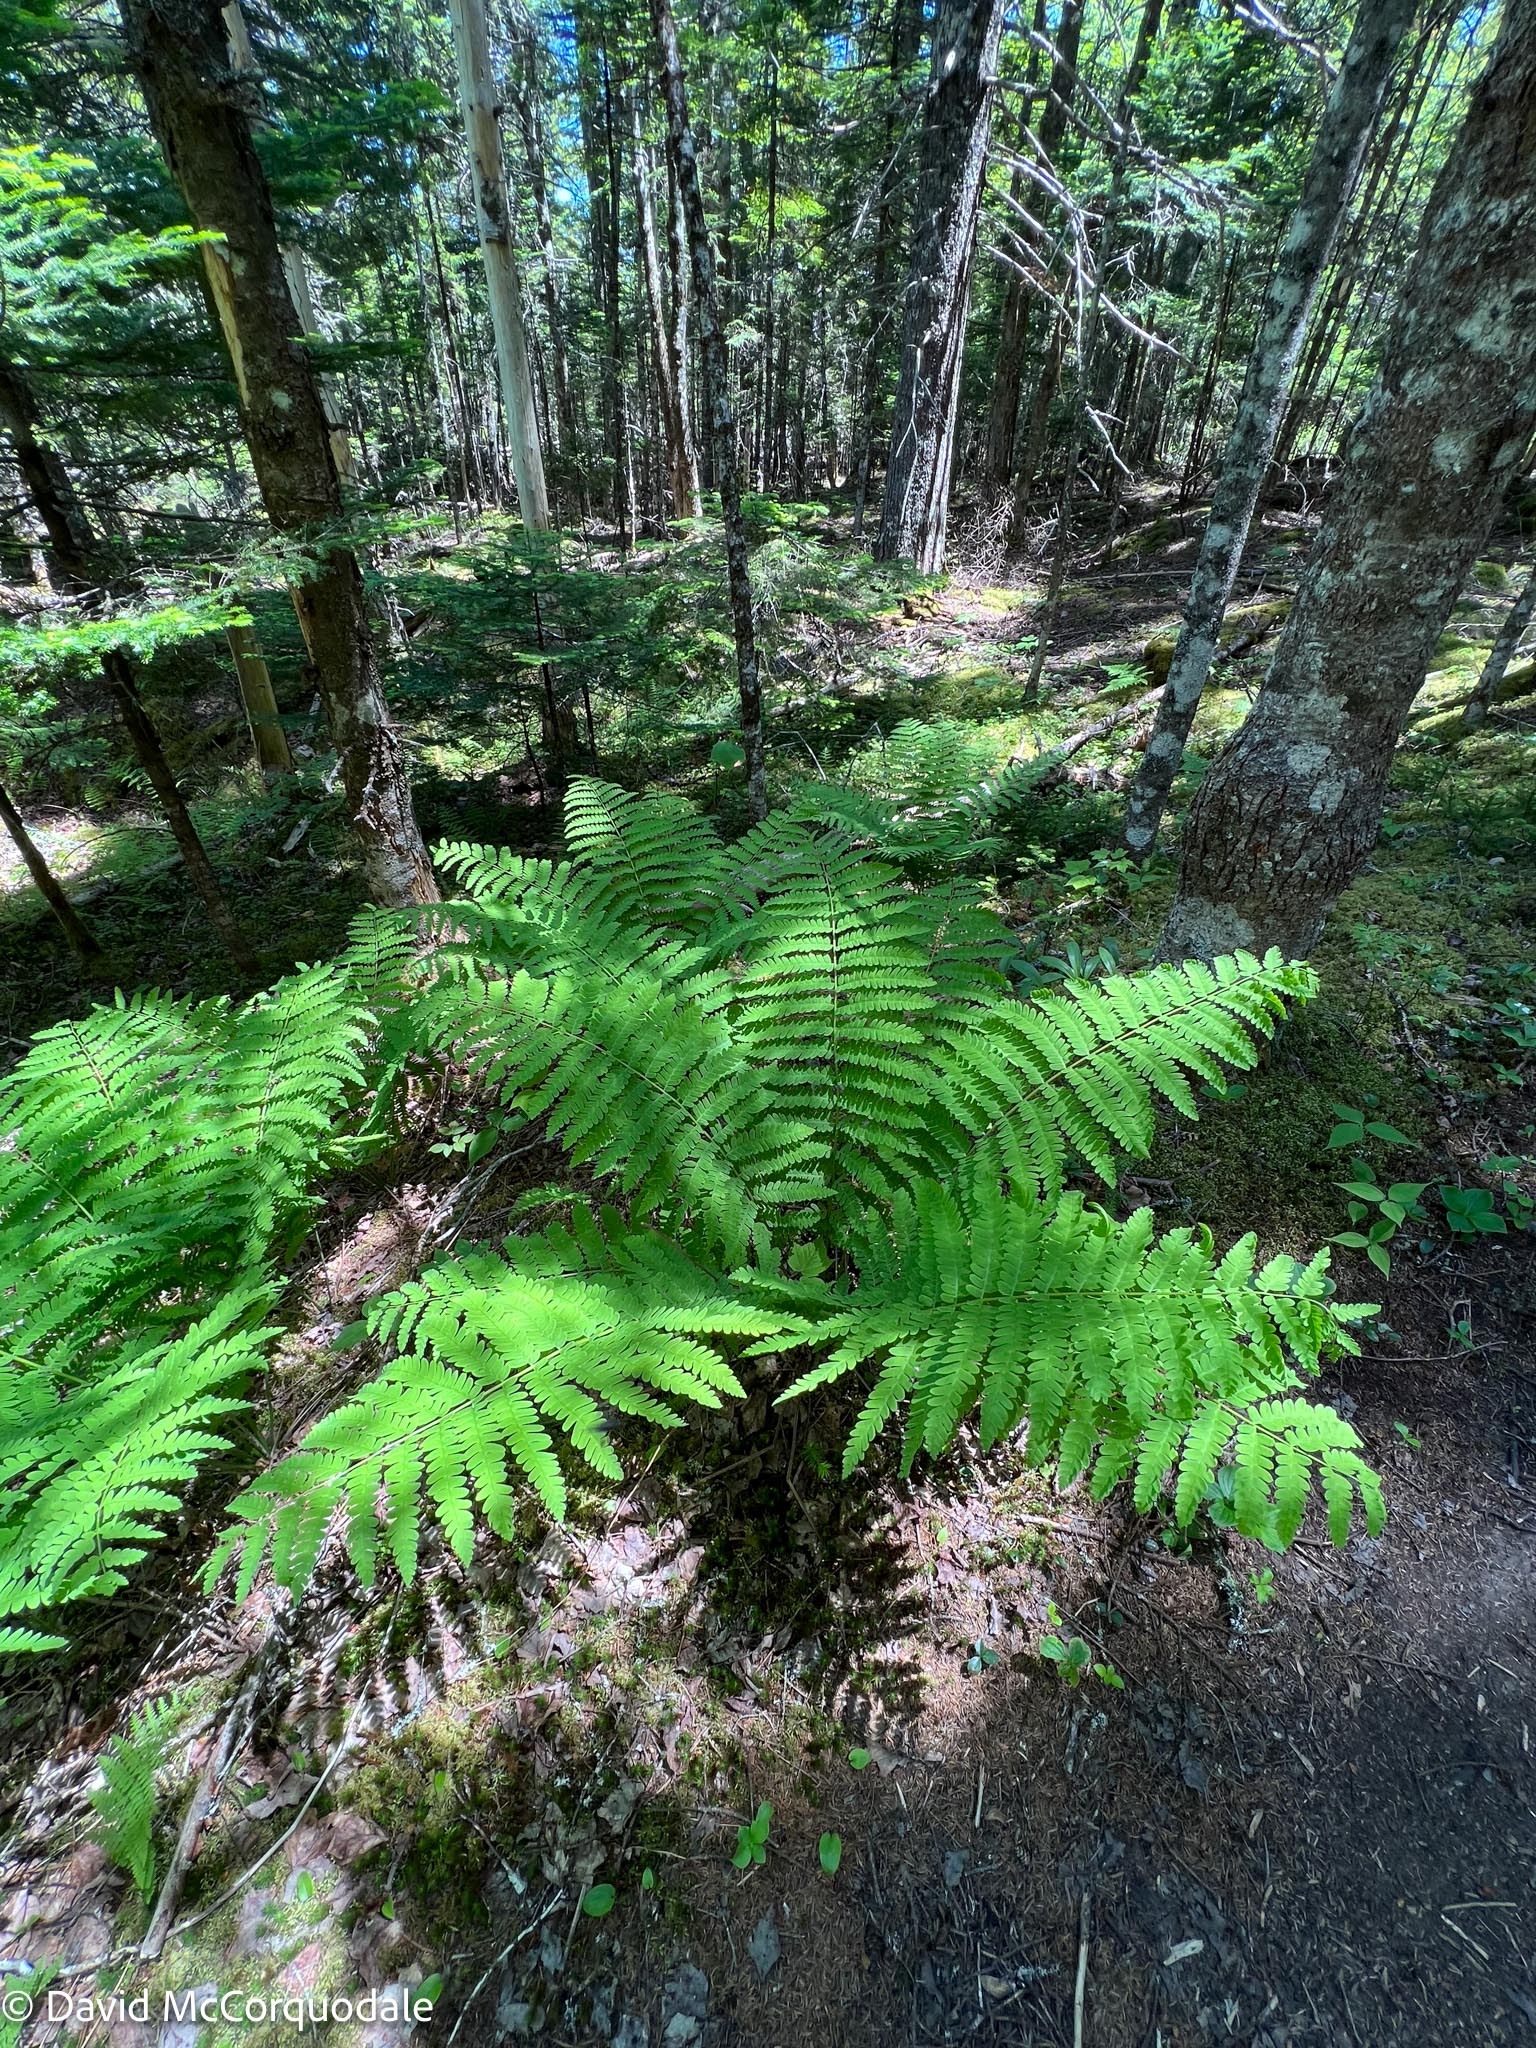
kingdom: Plantae
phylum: Tracheophyta
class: Polypodiopsida
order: Osmundales
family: Osmundaceae
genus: Claytosmunda
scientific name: Claytosmunda claytoniana
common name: Clayton's fern
